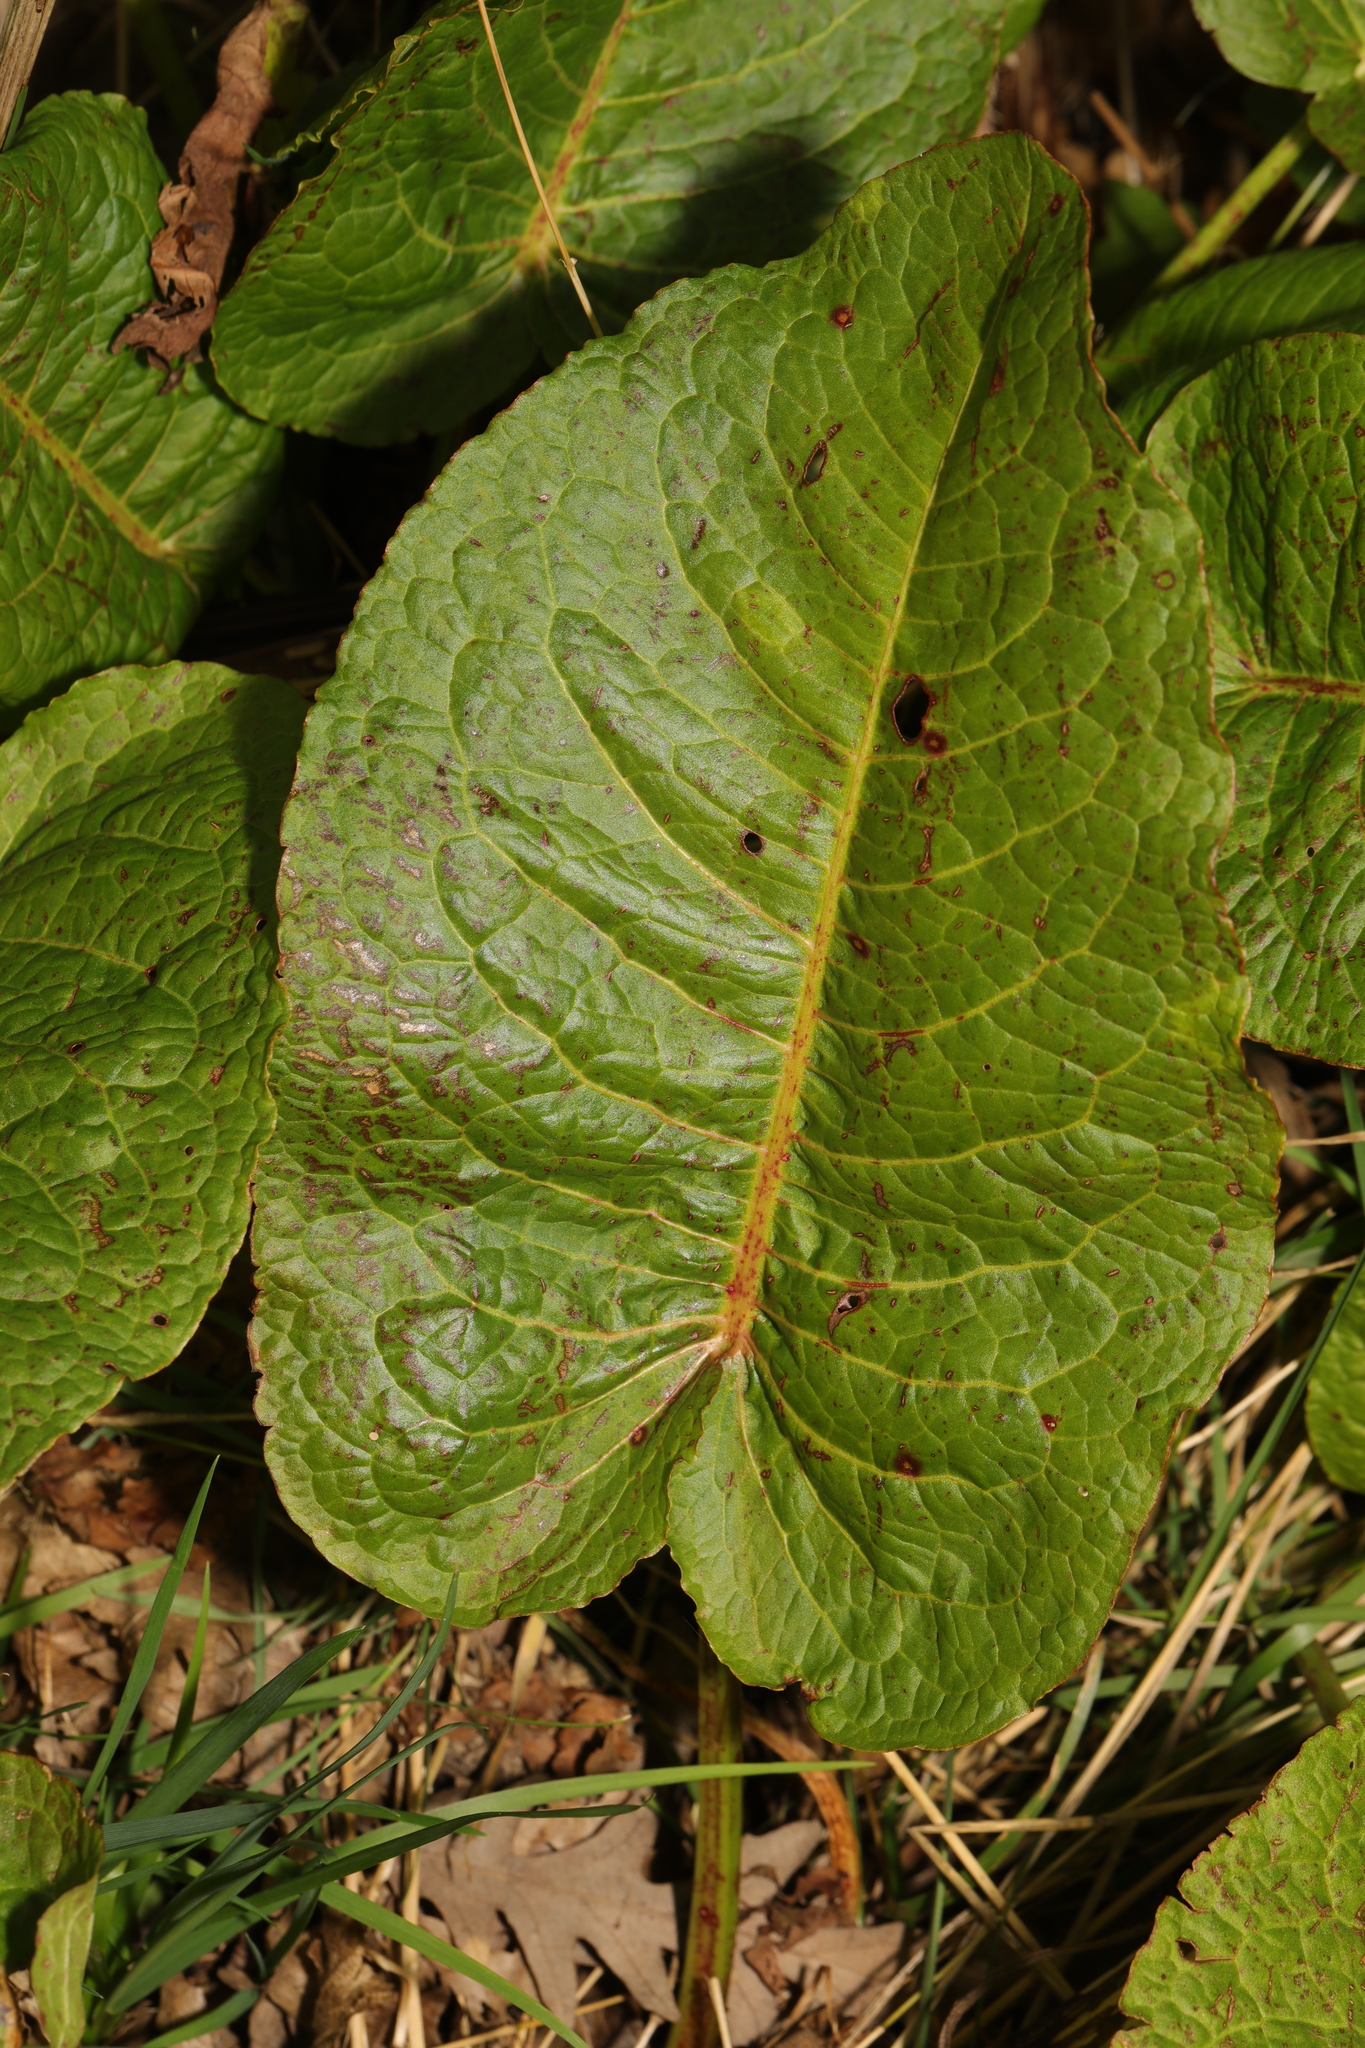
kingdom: Plantae
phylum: Tracheophyta
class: Magnoliopsida
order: Caryophyllales
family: Polygonaceae
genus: Rumex
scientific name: Rumex obtusifolius
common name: Bitter dock
